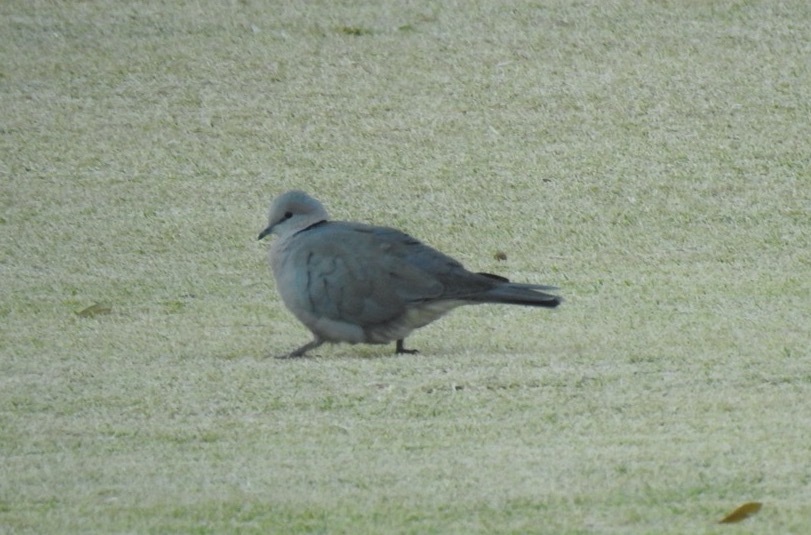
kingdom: Animalia
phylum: Chordata
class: Aves
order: Columbiformes
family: Columbidae
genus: Streptopelia
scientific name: Streptopelia capicola
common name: Ring-necked dove
